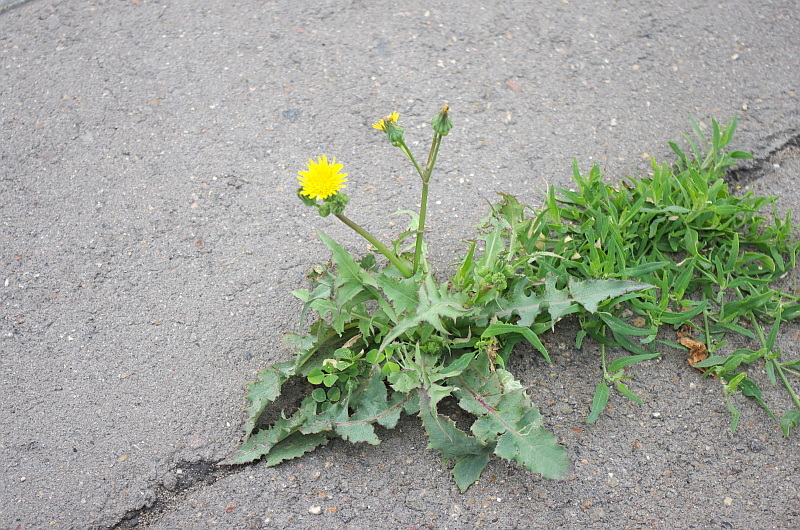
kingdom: Plantae
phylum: Tracheophyta
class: Magnoliopsida
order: Asterales
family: Asteraceae
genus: Sonchus
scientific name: Sonchus oleraceus
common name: Common sowthistle
